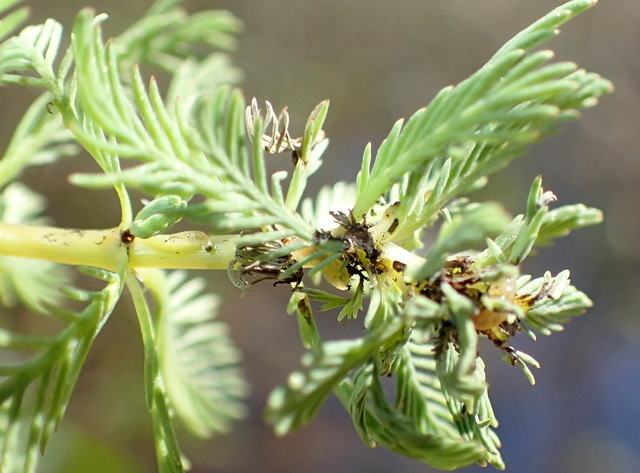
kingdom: Plantae
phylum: Tracheophyta
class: Magnoliopsida
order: Saxifragales
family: Haloragaceae
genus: Myriophyllum
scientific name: Myriophyllum aquaticum
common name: Parrot's feather
